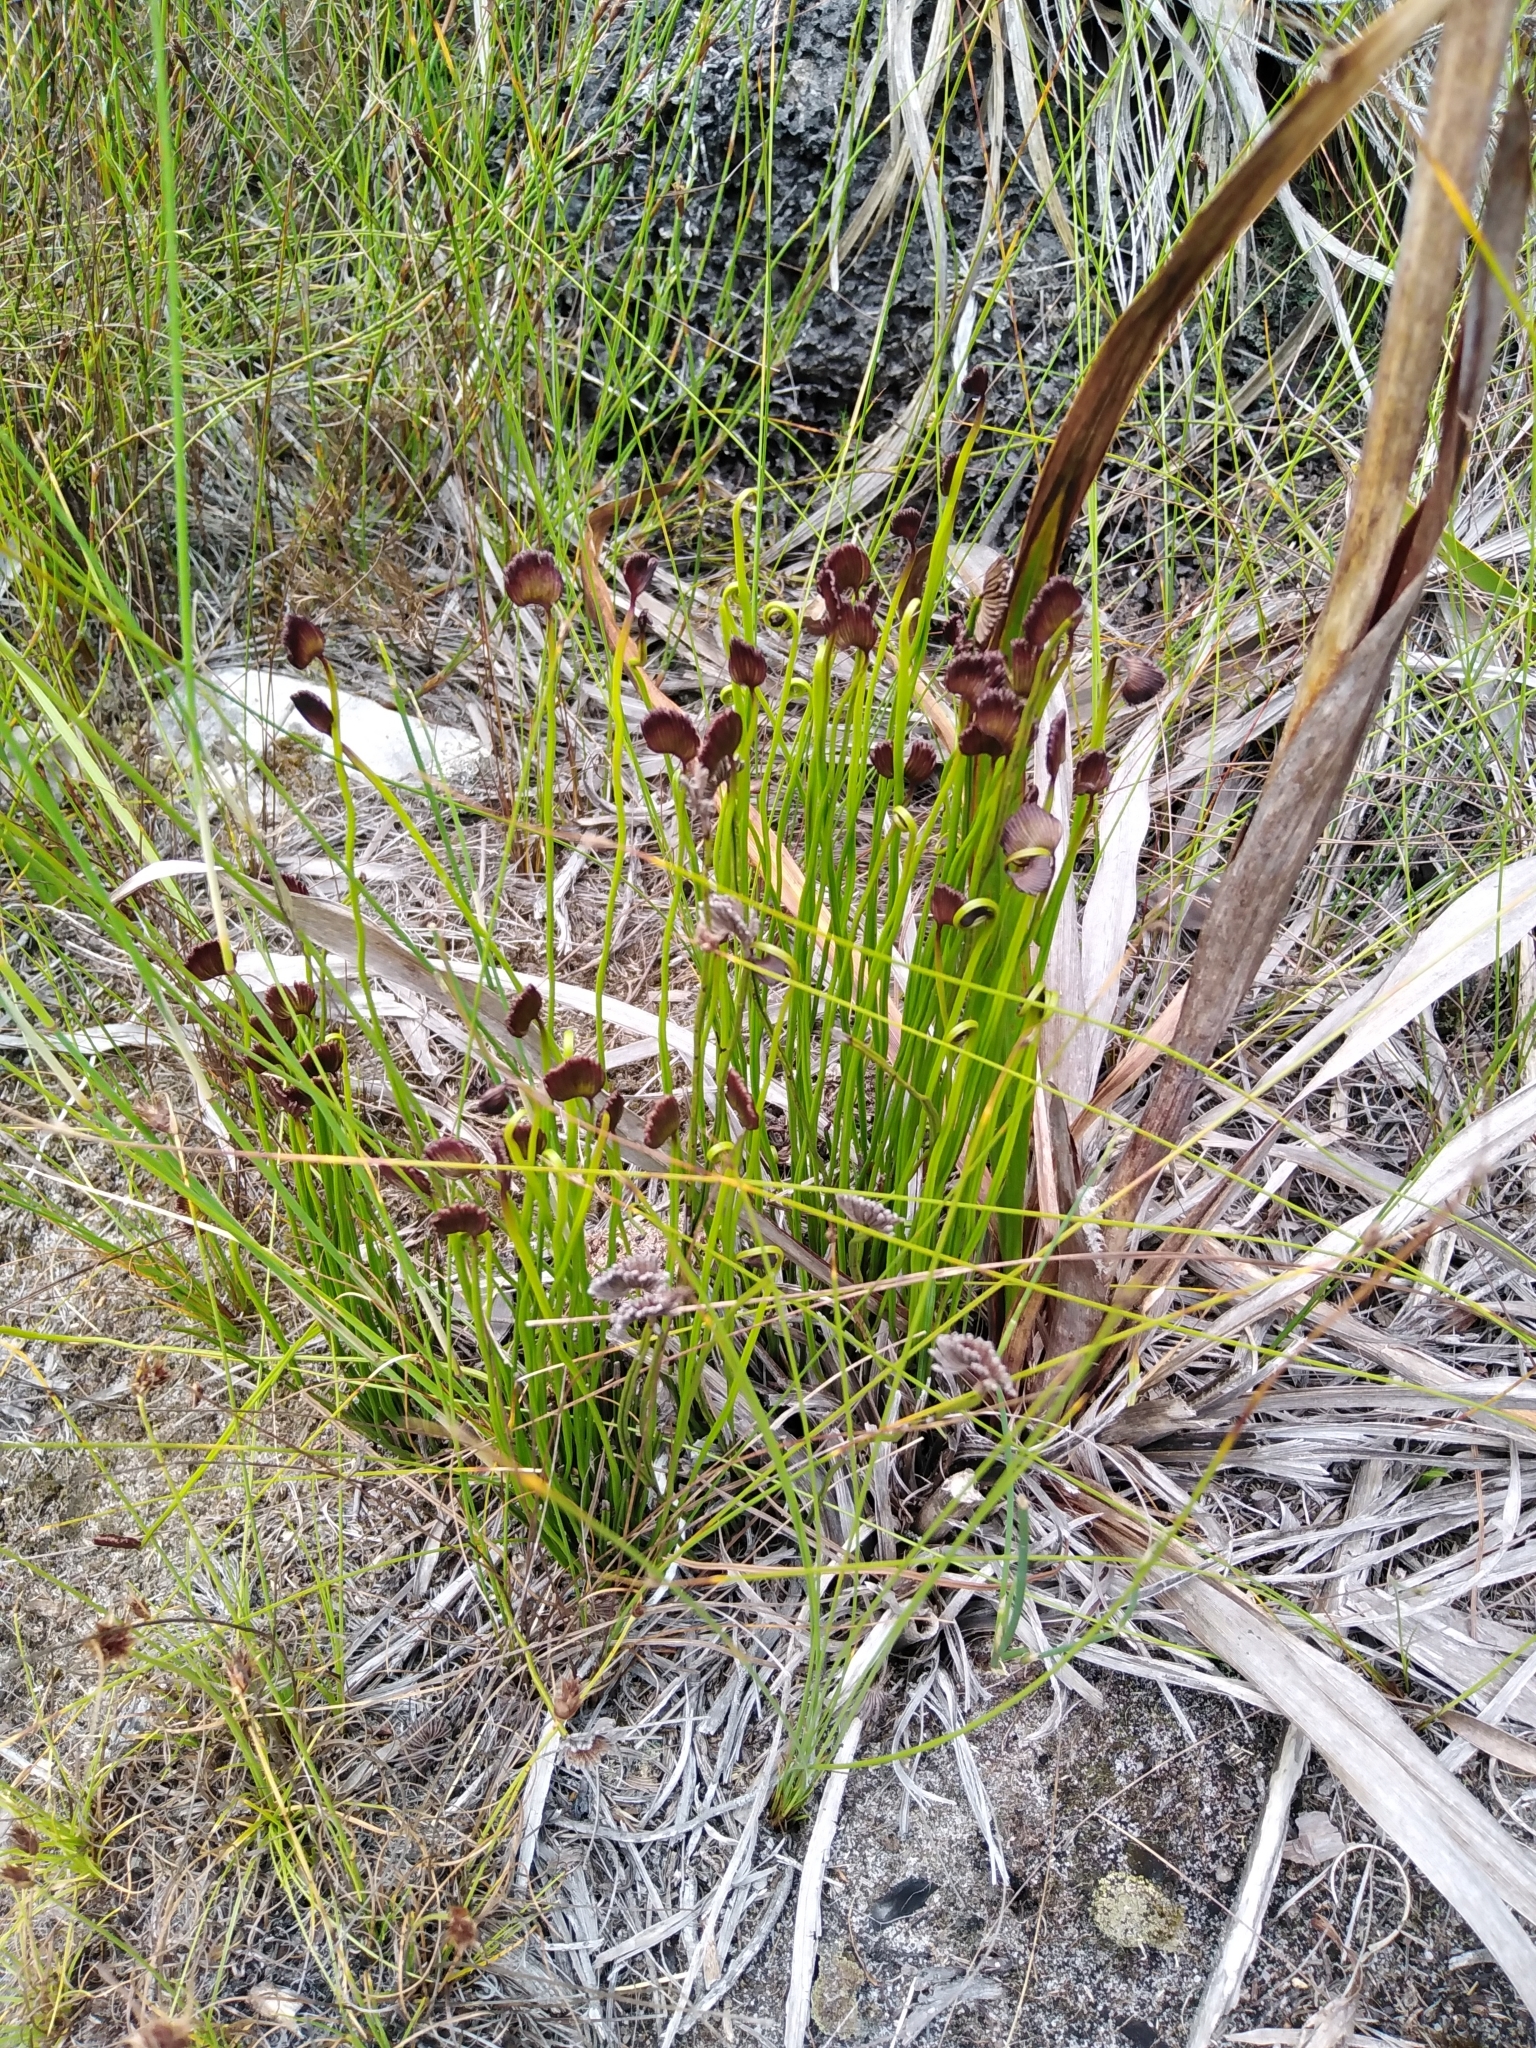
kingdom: Plantae
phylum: Tracheophyta
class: Polypodiopsida
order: Schizaeales
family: Schizaeaceae
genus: Schizaea
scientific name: Schizaea pectinata
